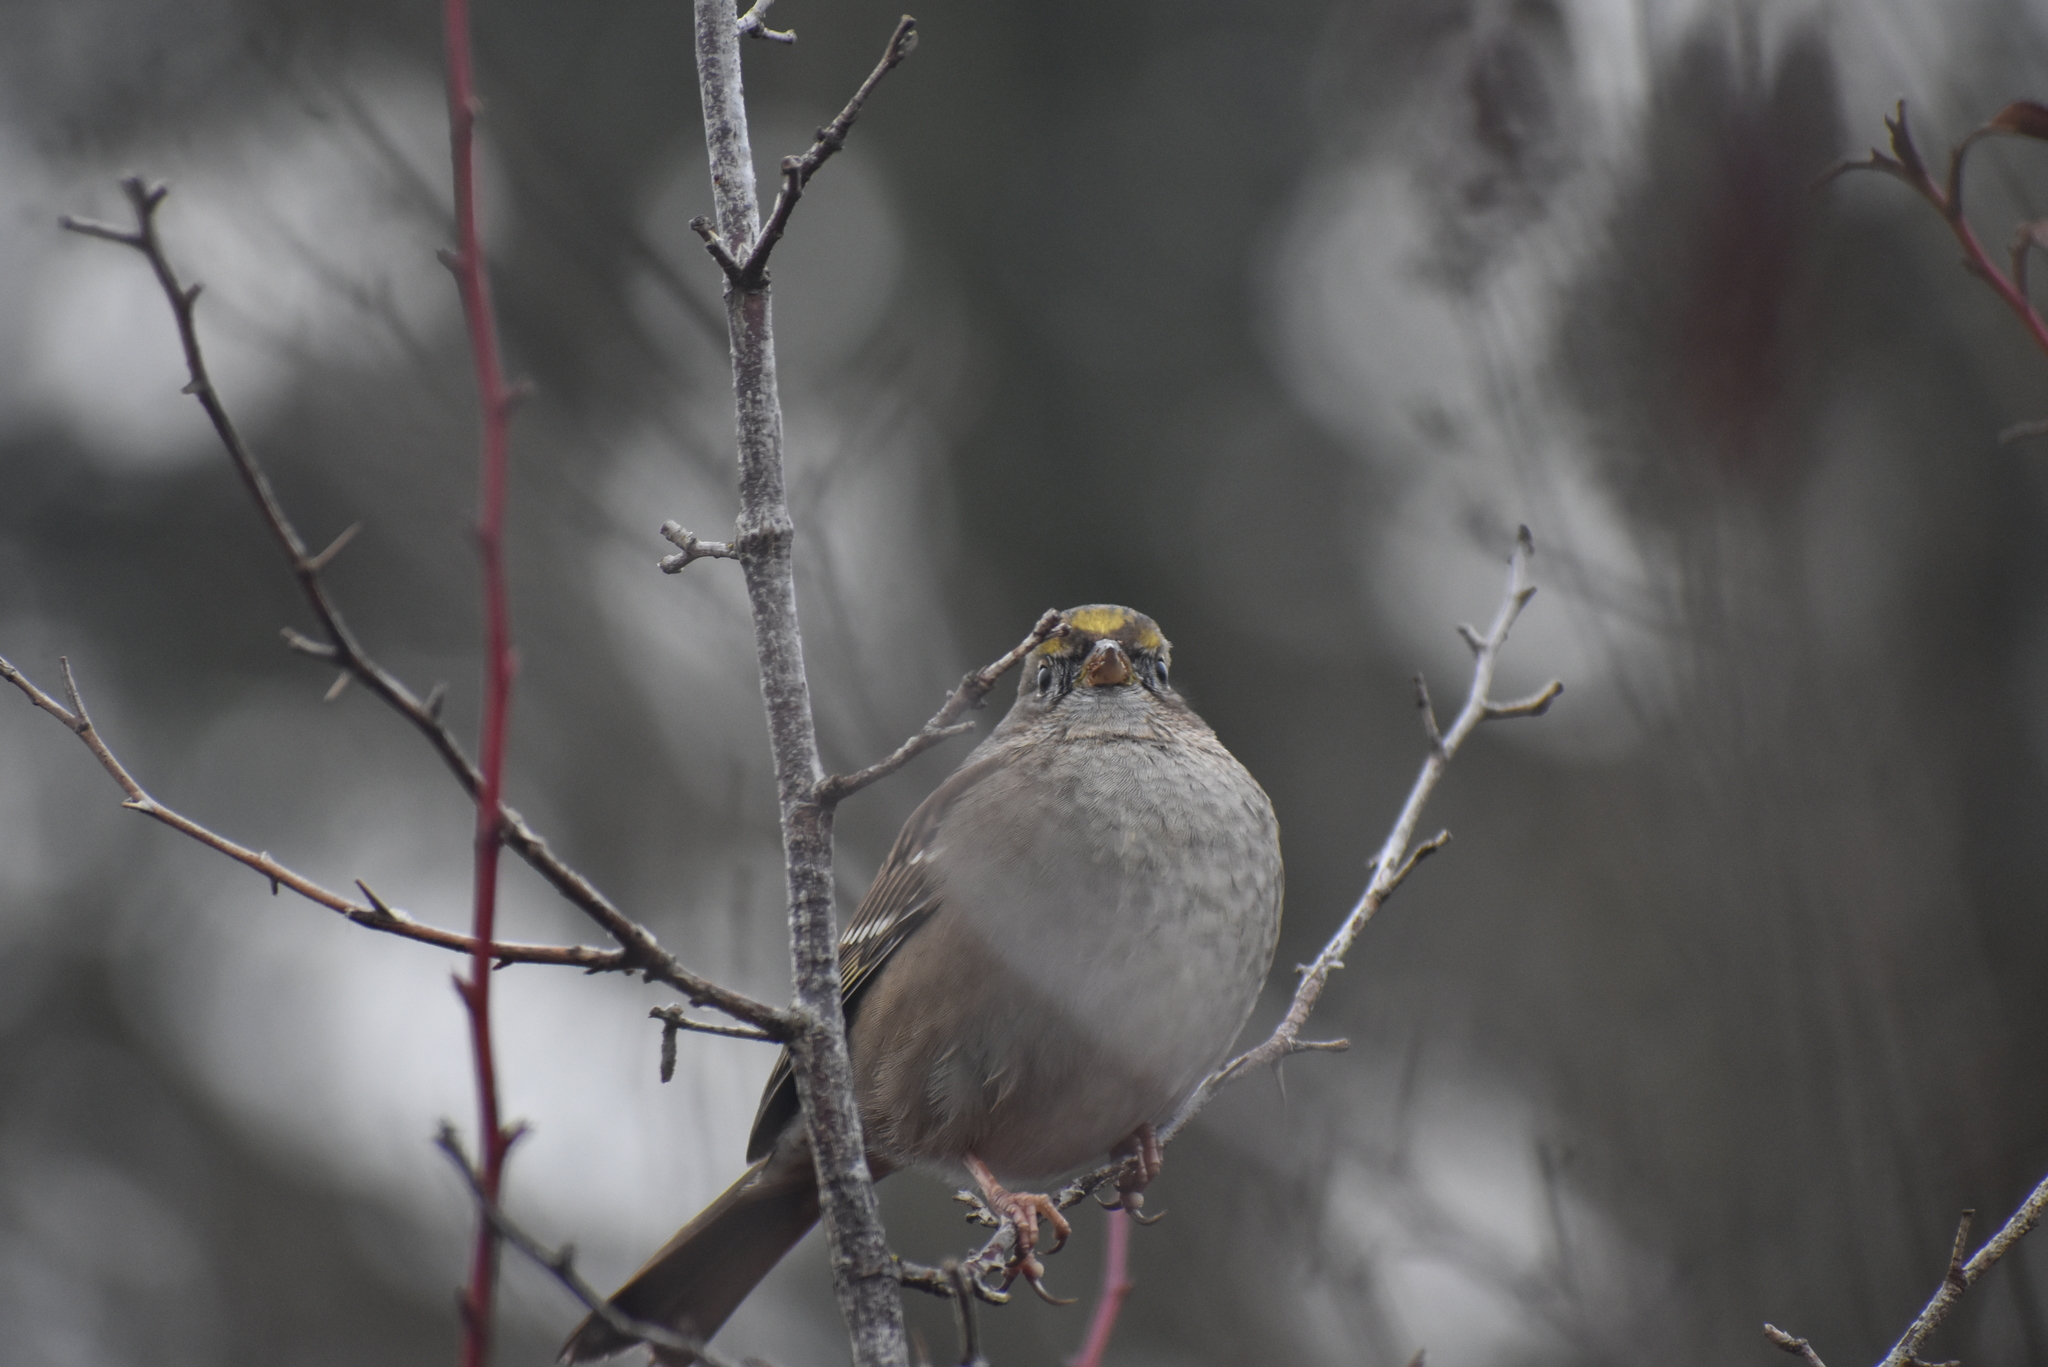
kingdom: Animalia
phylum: Chordata
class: Aves
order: Passeriformes
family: Passerellidae
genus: Zonotrichia
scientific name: Zonotrichia atricapilla
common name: Golden-crowned sparrow
